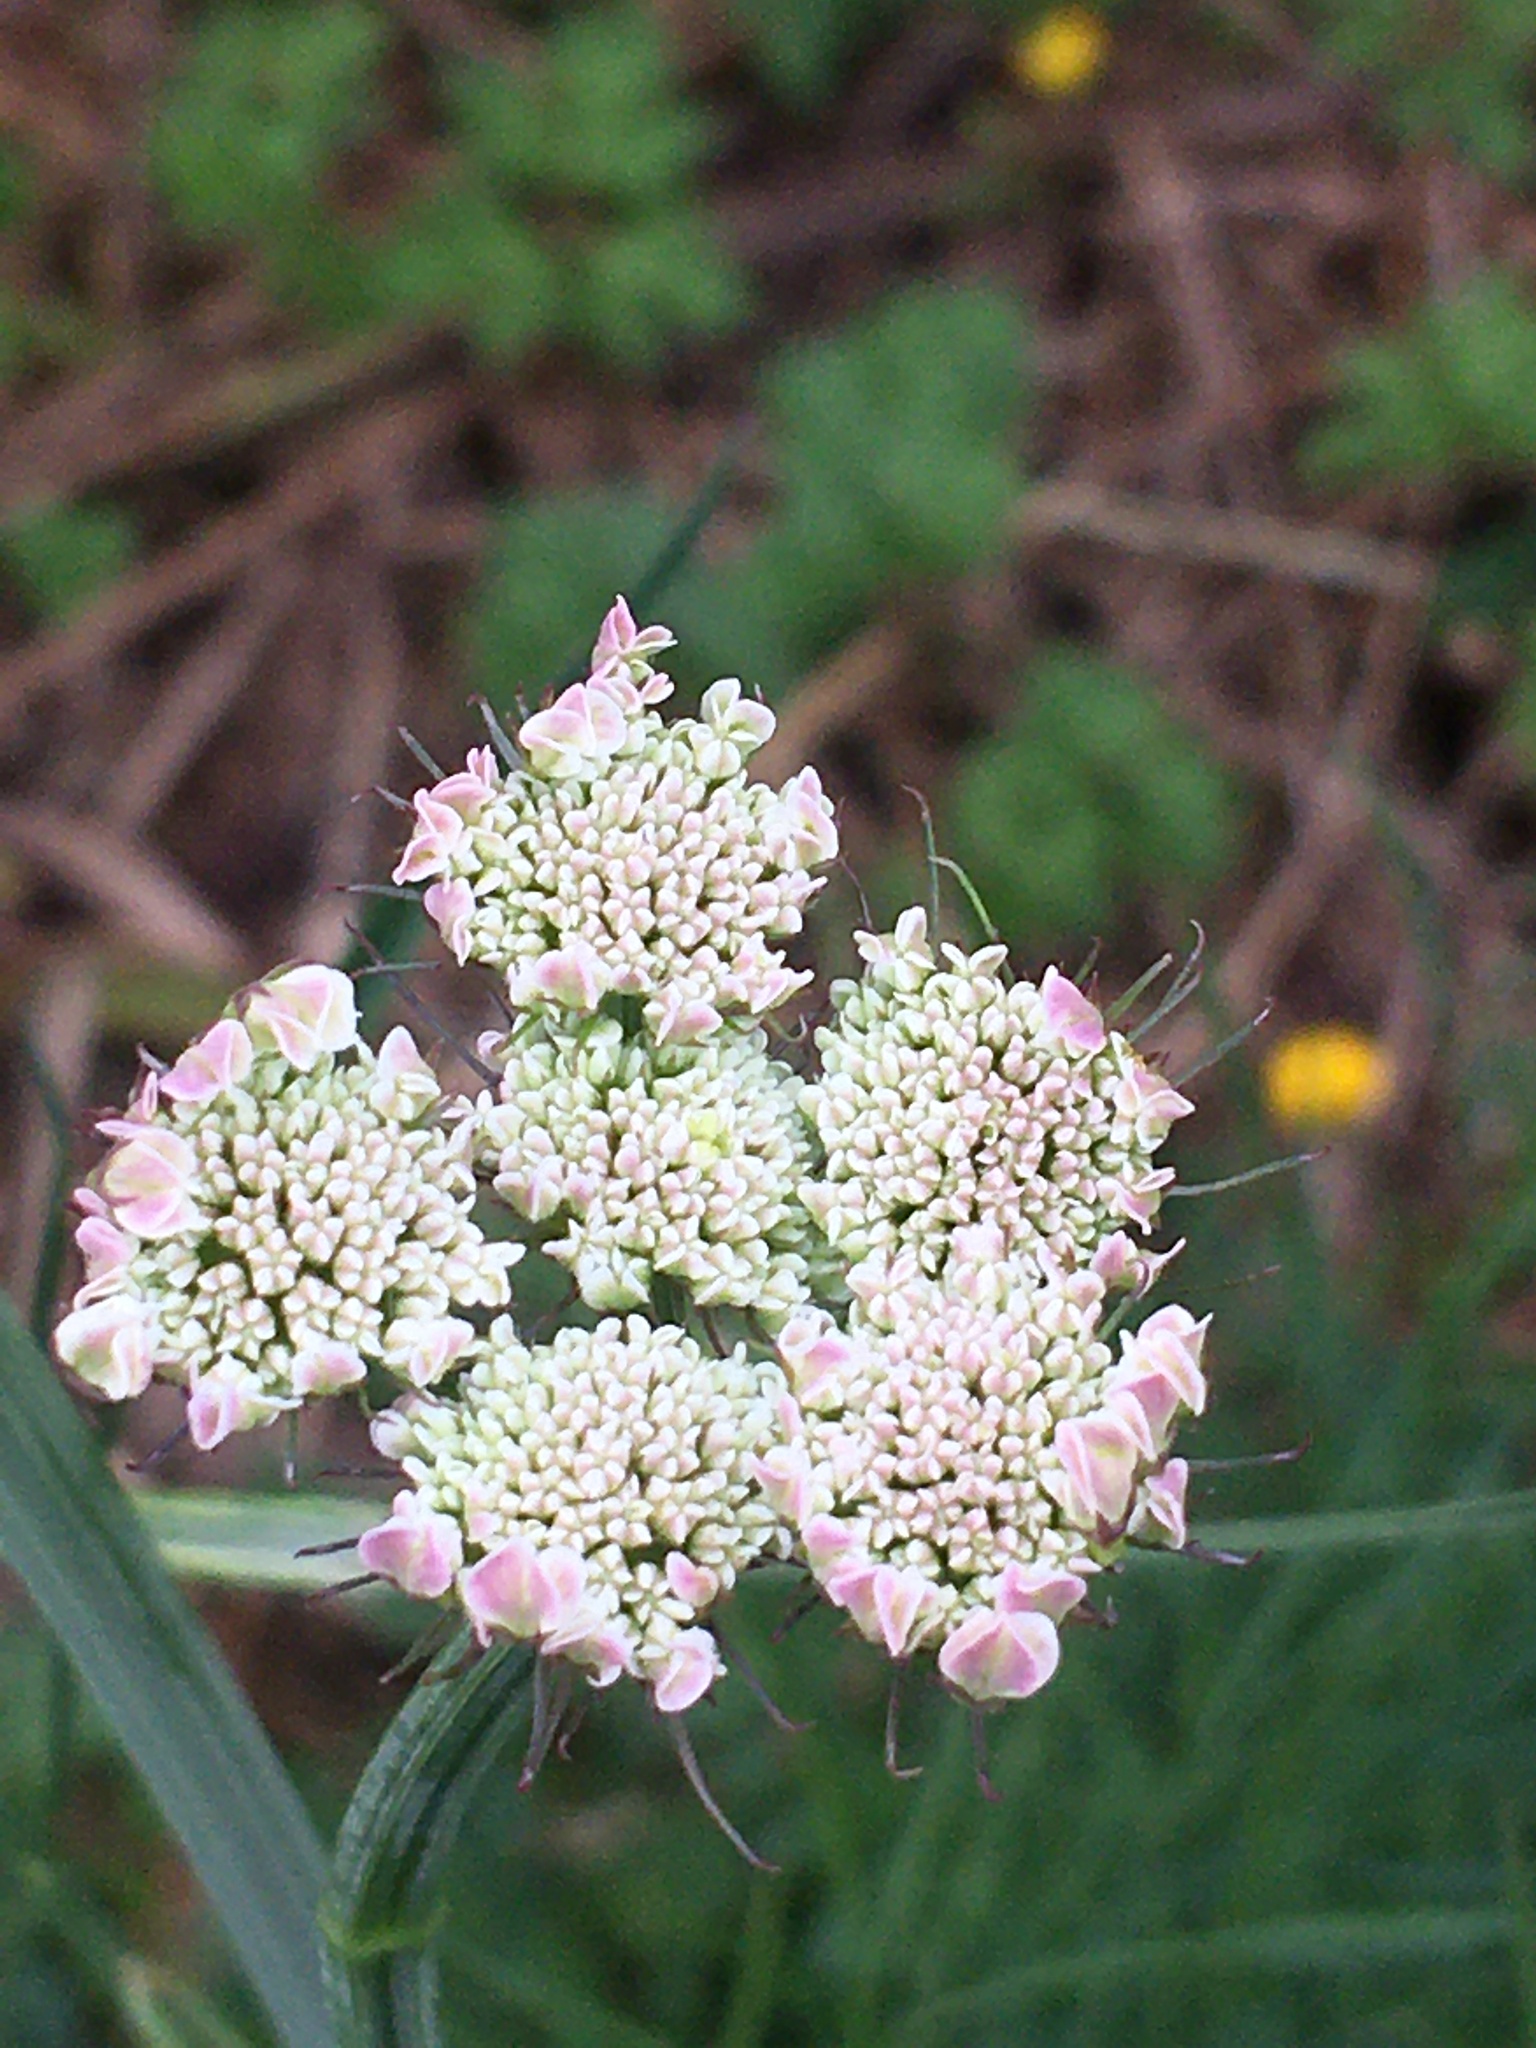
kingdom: Plantae
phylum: Tracheophyta
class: Magnoliopsida
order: Apiales
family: Apiaceae
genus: Oenanthe
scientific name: Oenanthe pimpinelloides
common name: Corky-fruited water-dropwort
